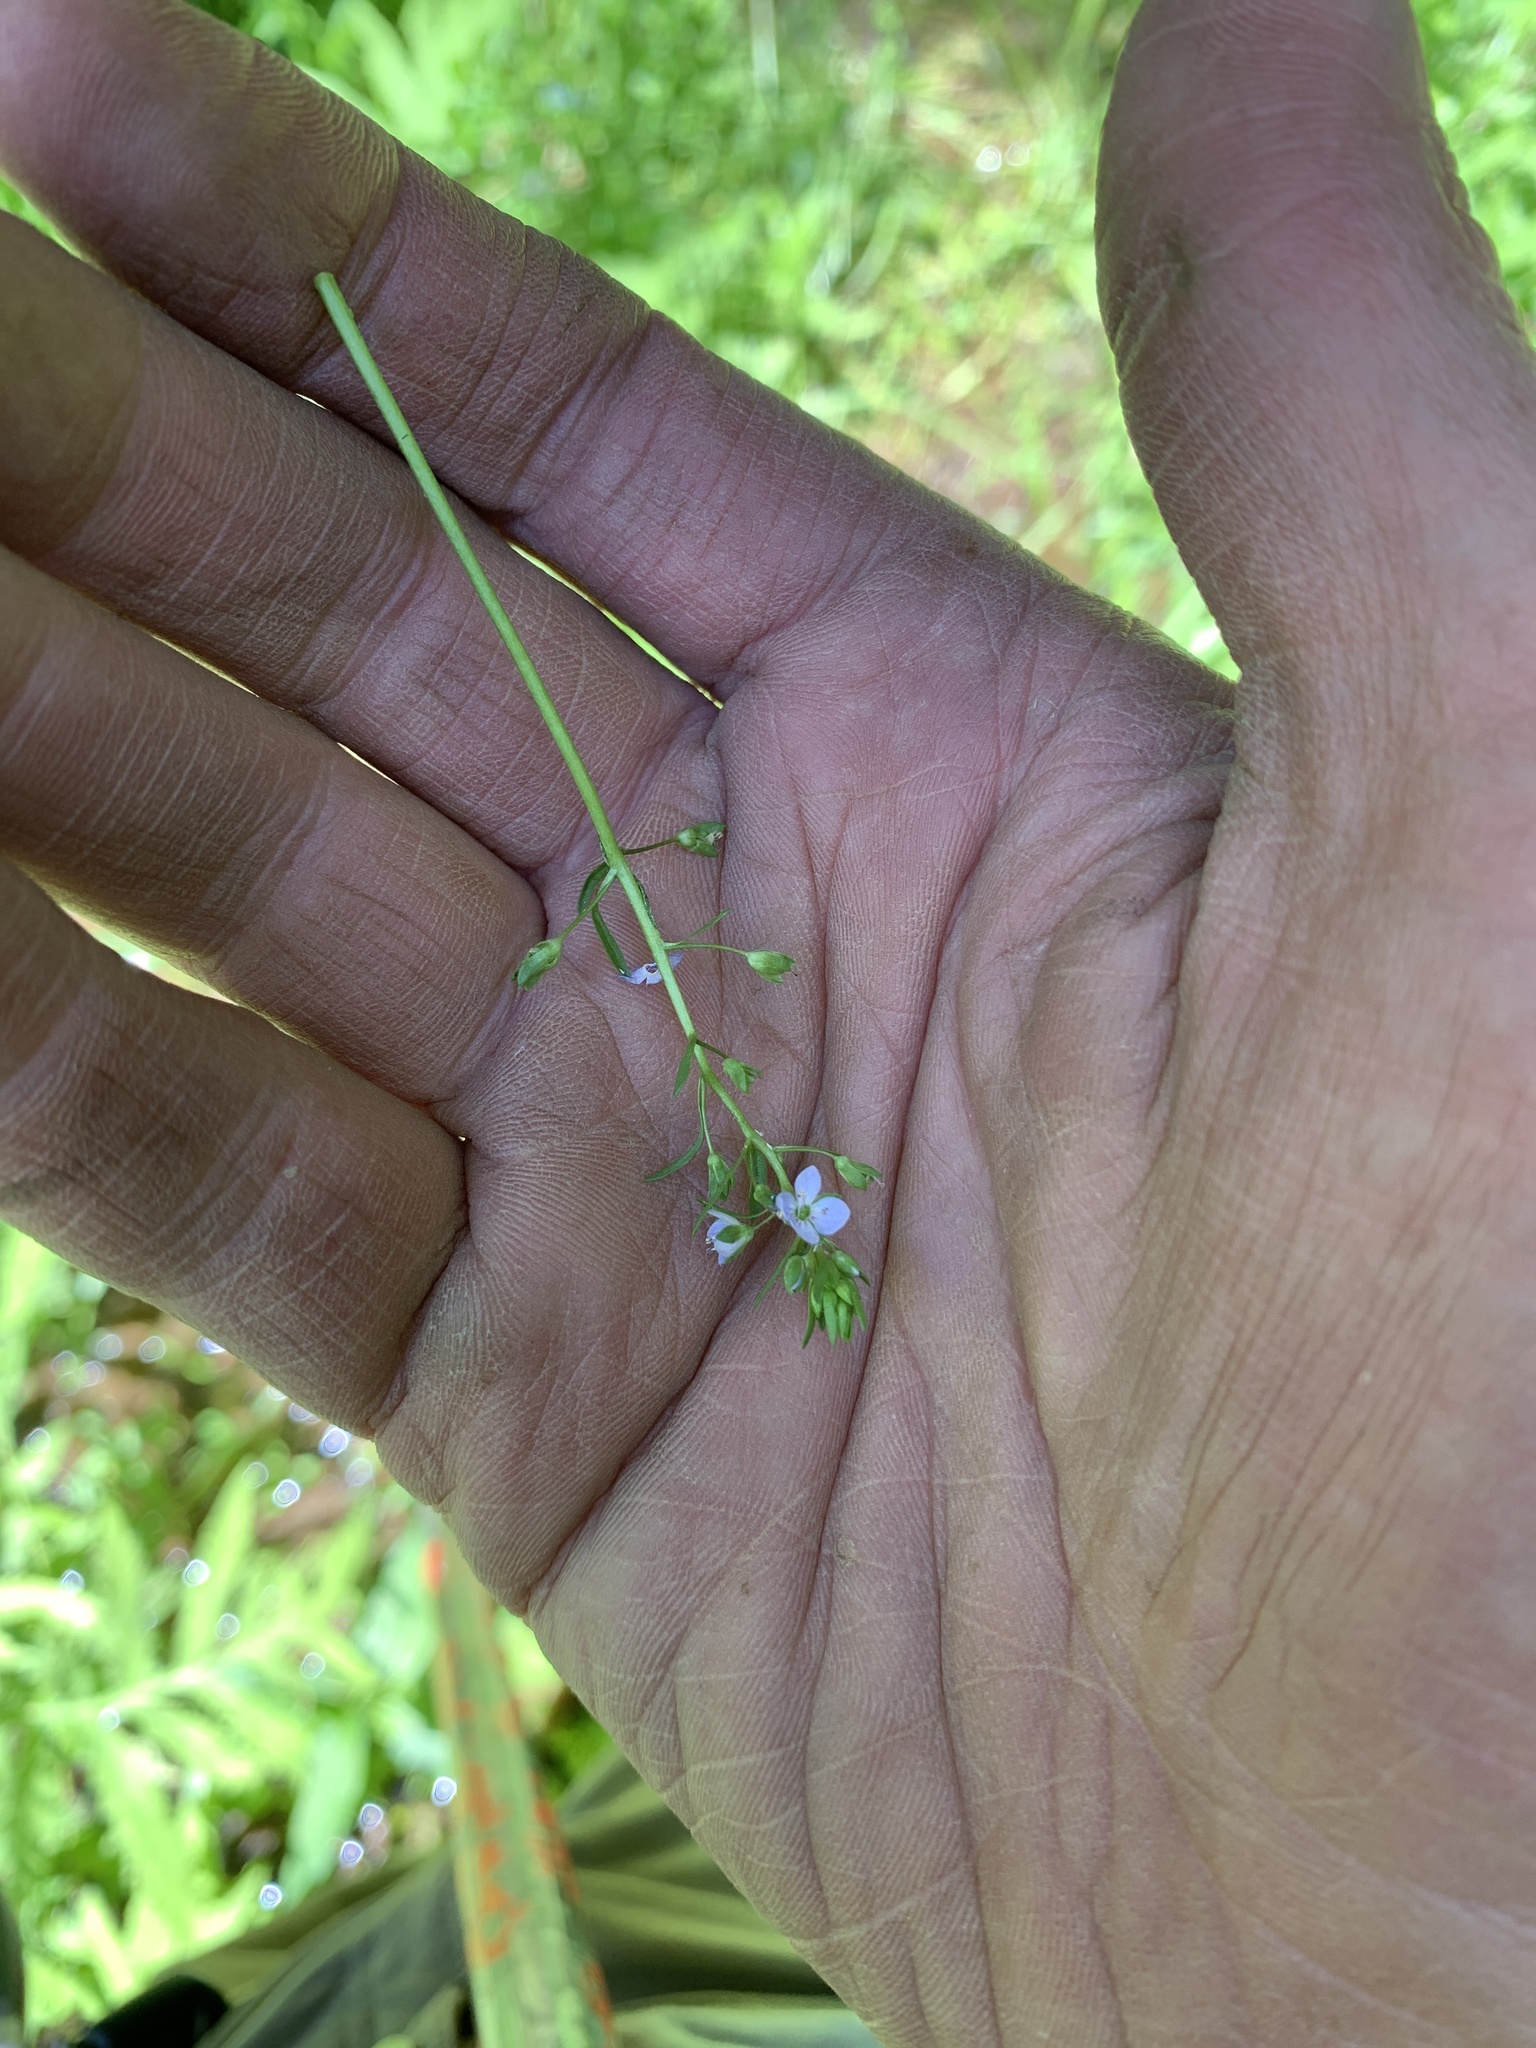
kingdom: Plantae
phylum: Tracheophyta
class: Magnoliopsida
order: Lamiales
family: Plantaginaceae
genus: Veronica
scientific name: Veronica americana
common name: American brooklime
